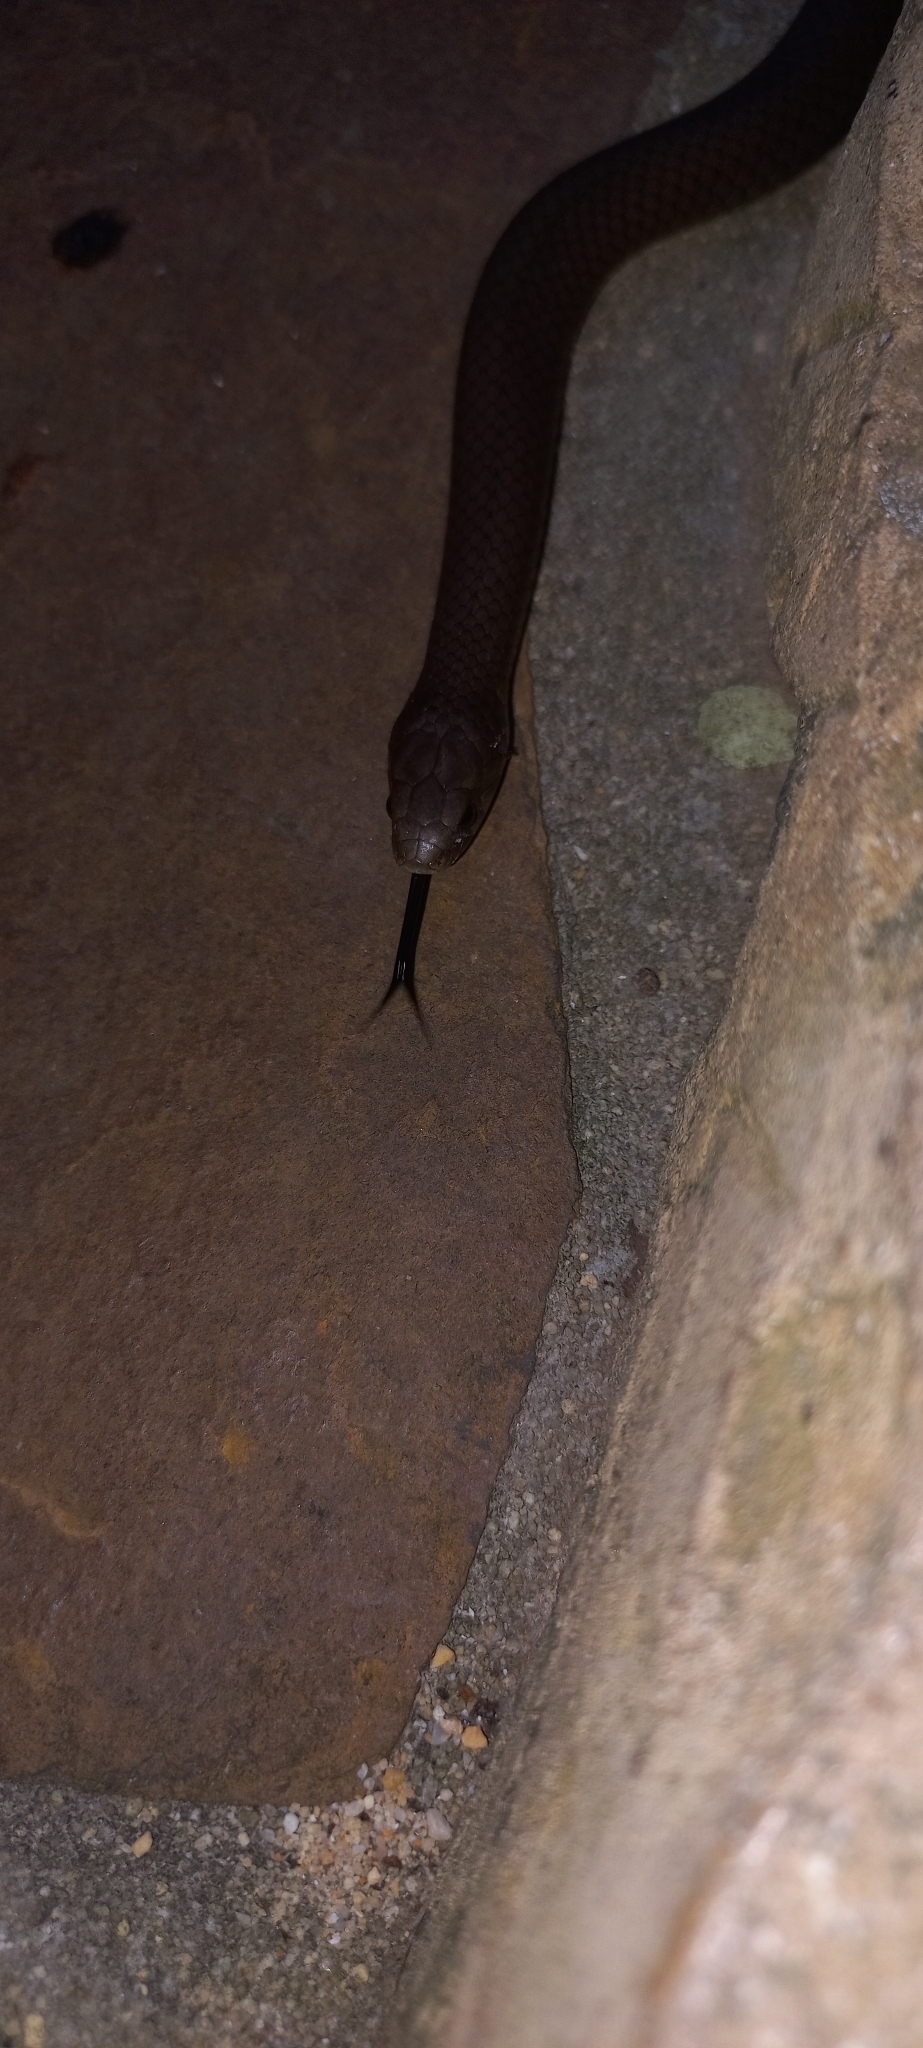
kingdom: Animalia
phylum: Chordata
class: Squamata
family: Pseudoxyrhophiidae
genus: Duberria
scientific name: Duberria lutrix
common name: Common slug eater
